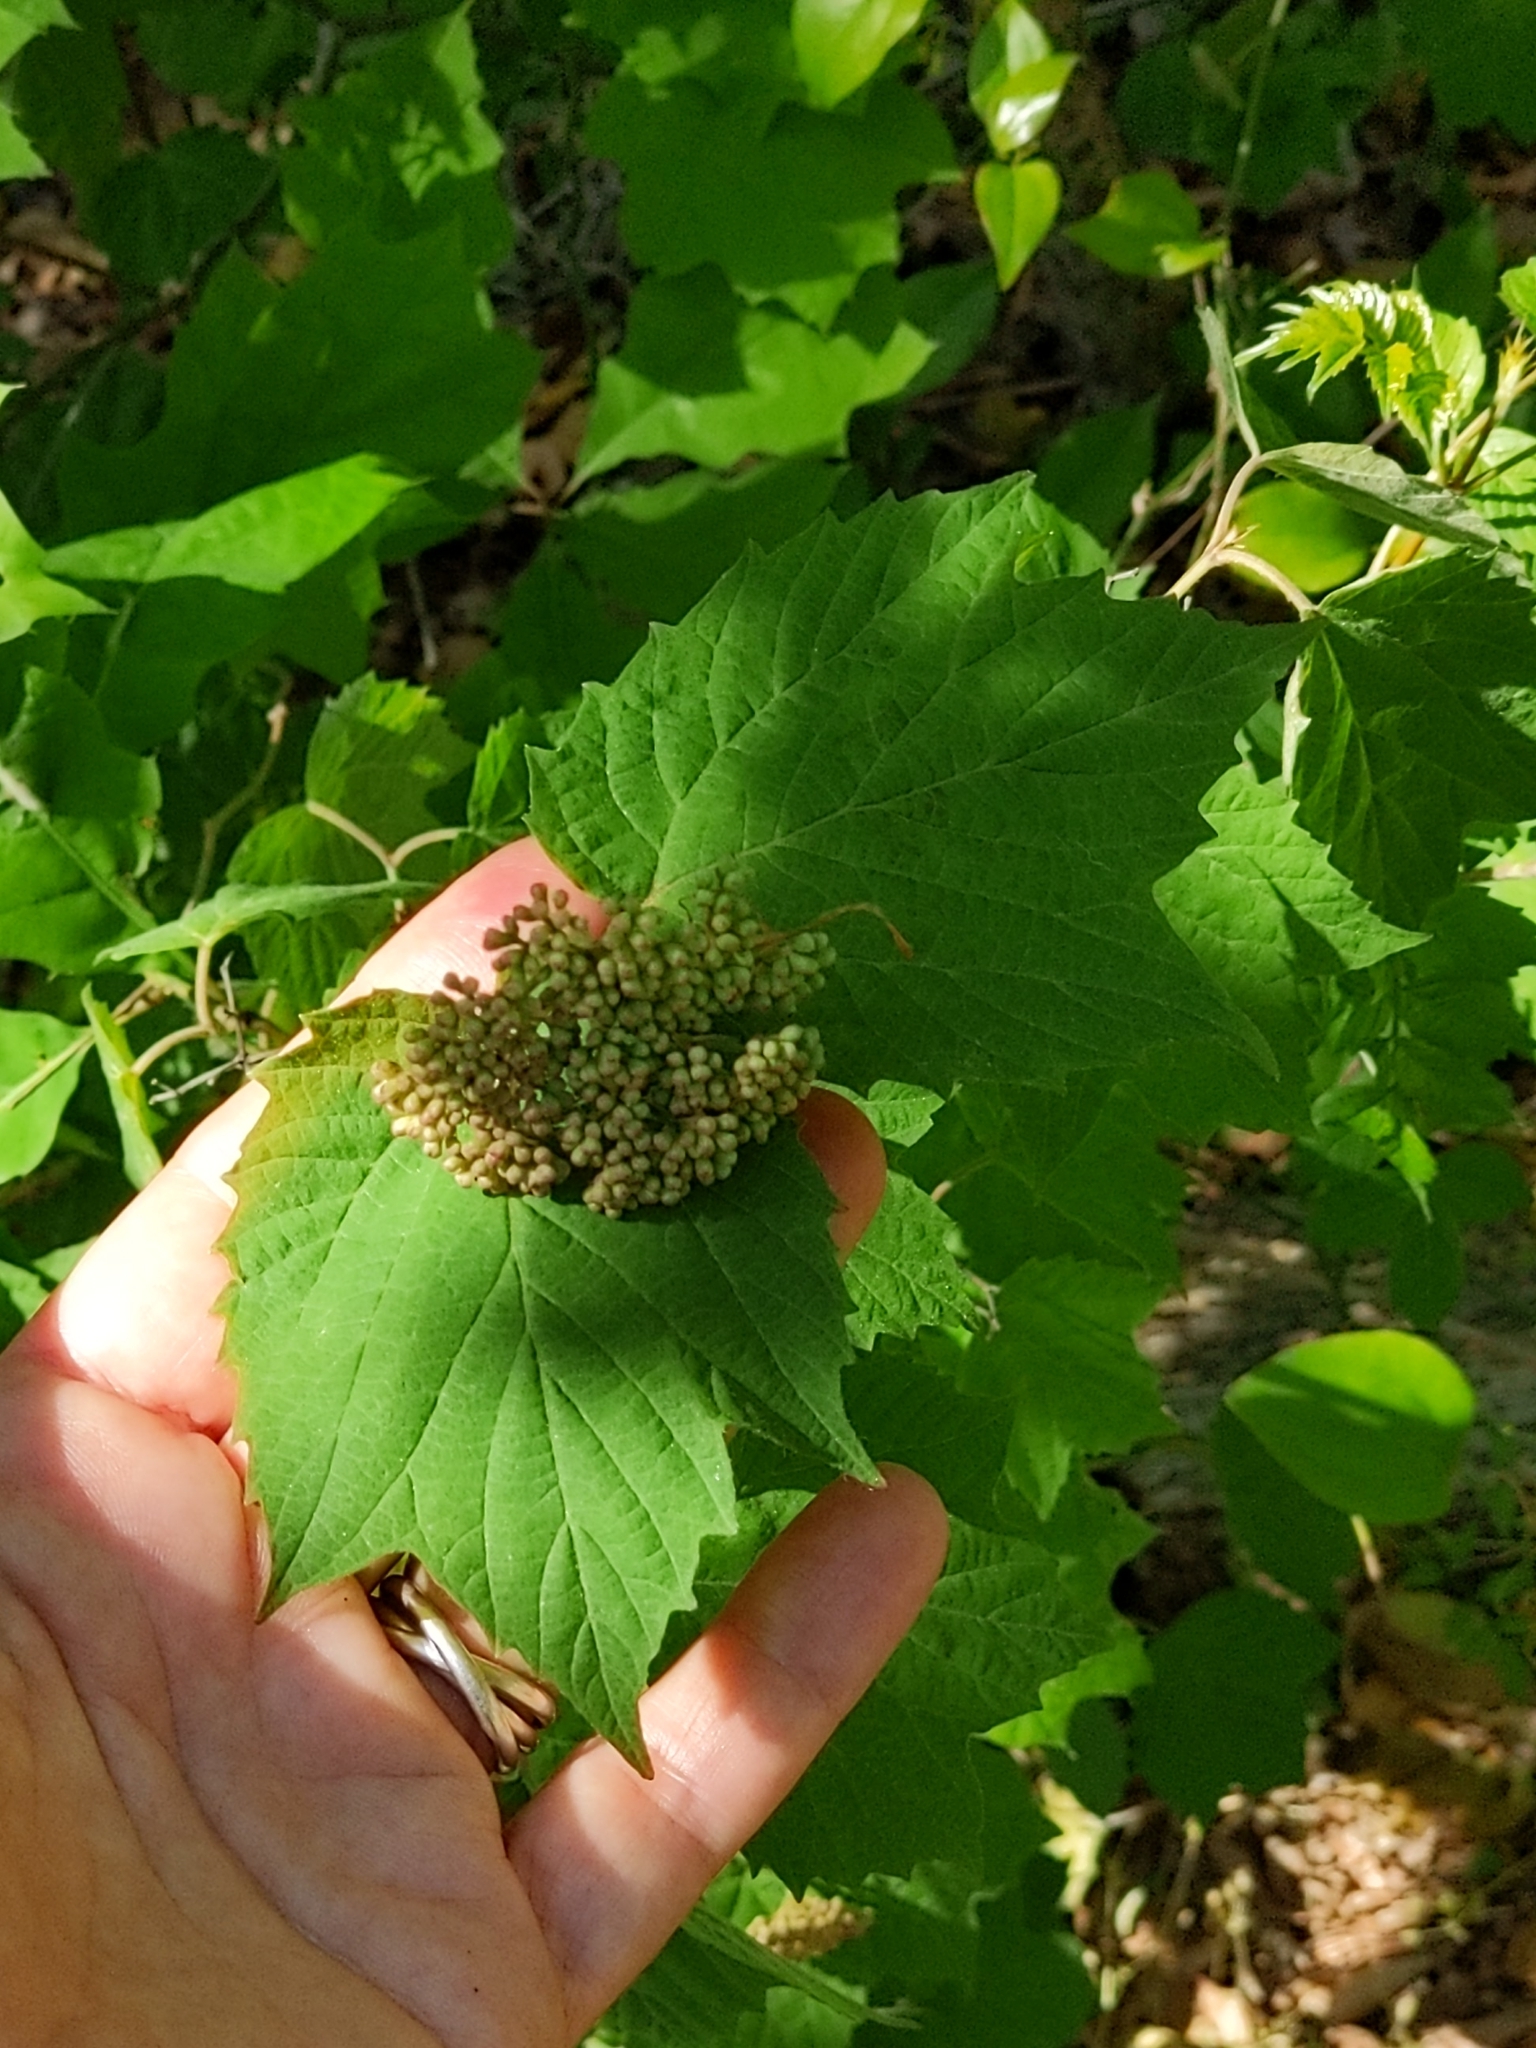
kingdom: Plantae
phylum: Tracheophyta
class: Magnoliopsida
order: Dipsacales
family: Viburnaceae
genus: Viburnum
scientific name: Viburnum acerifolium
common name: Dockmackie
